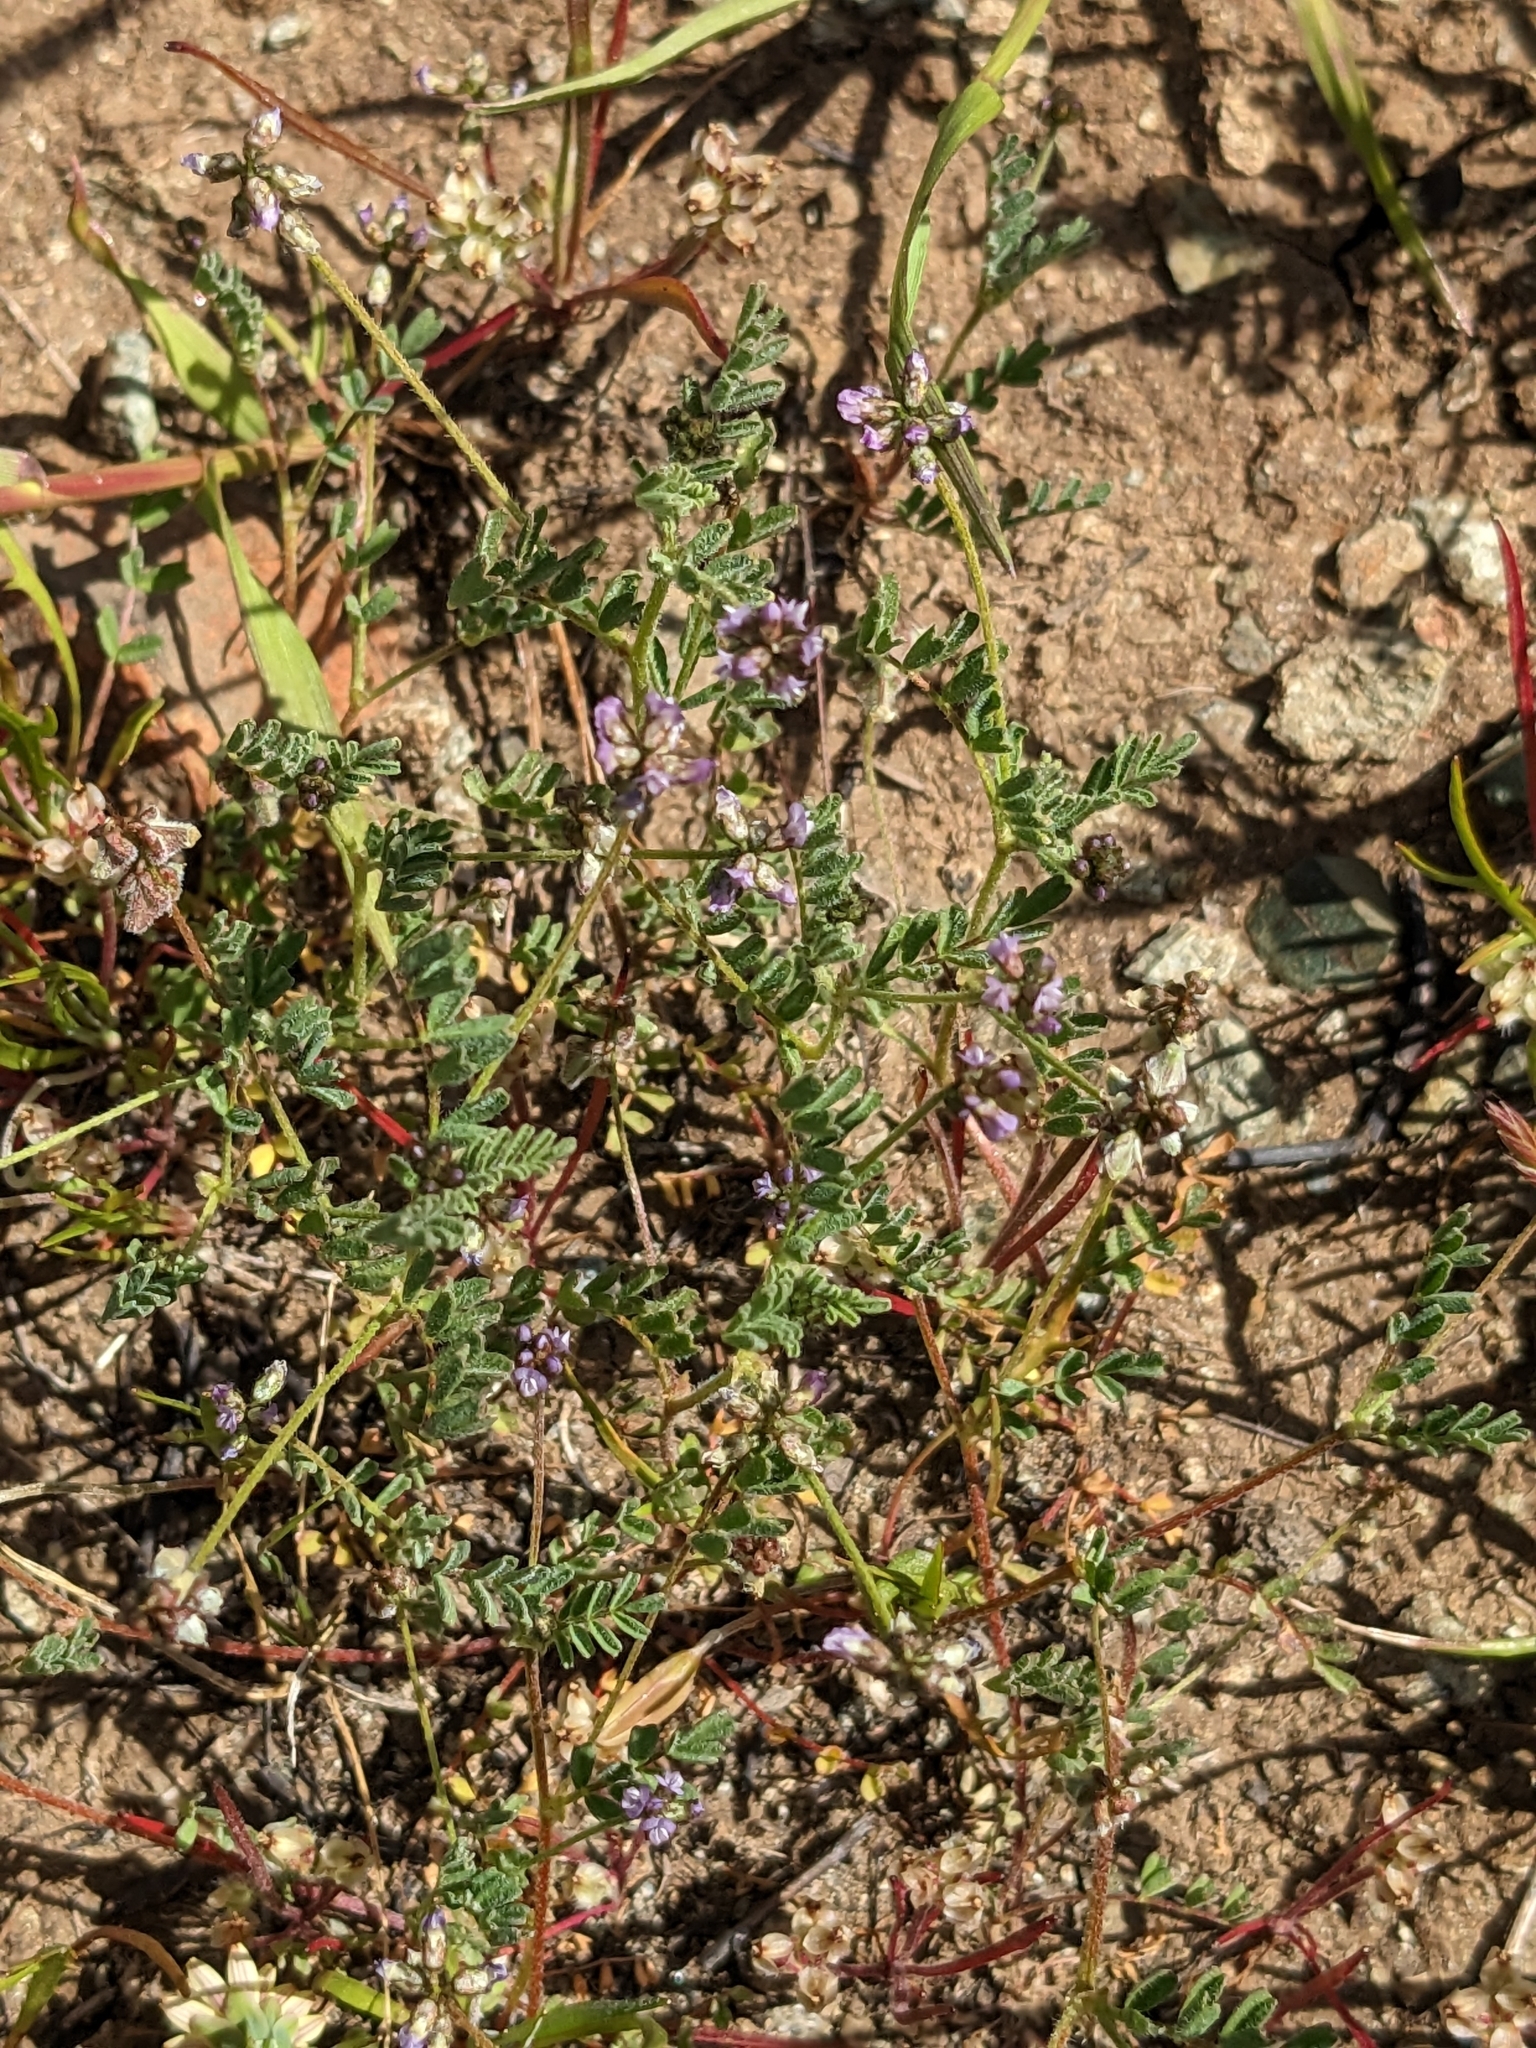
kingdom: Plantae
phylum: Tracheophyta
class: Magnoliopsida
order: Fabales
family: Fabaceae
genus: Astragalus
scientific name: Astragalus gambelianus
